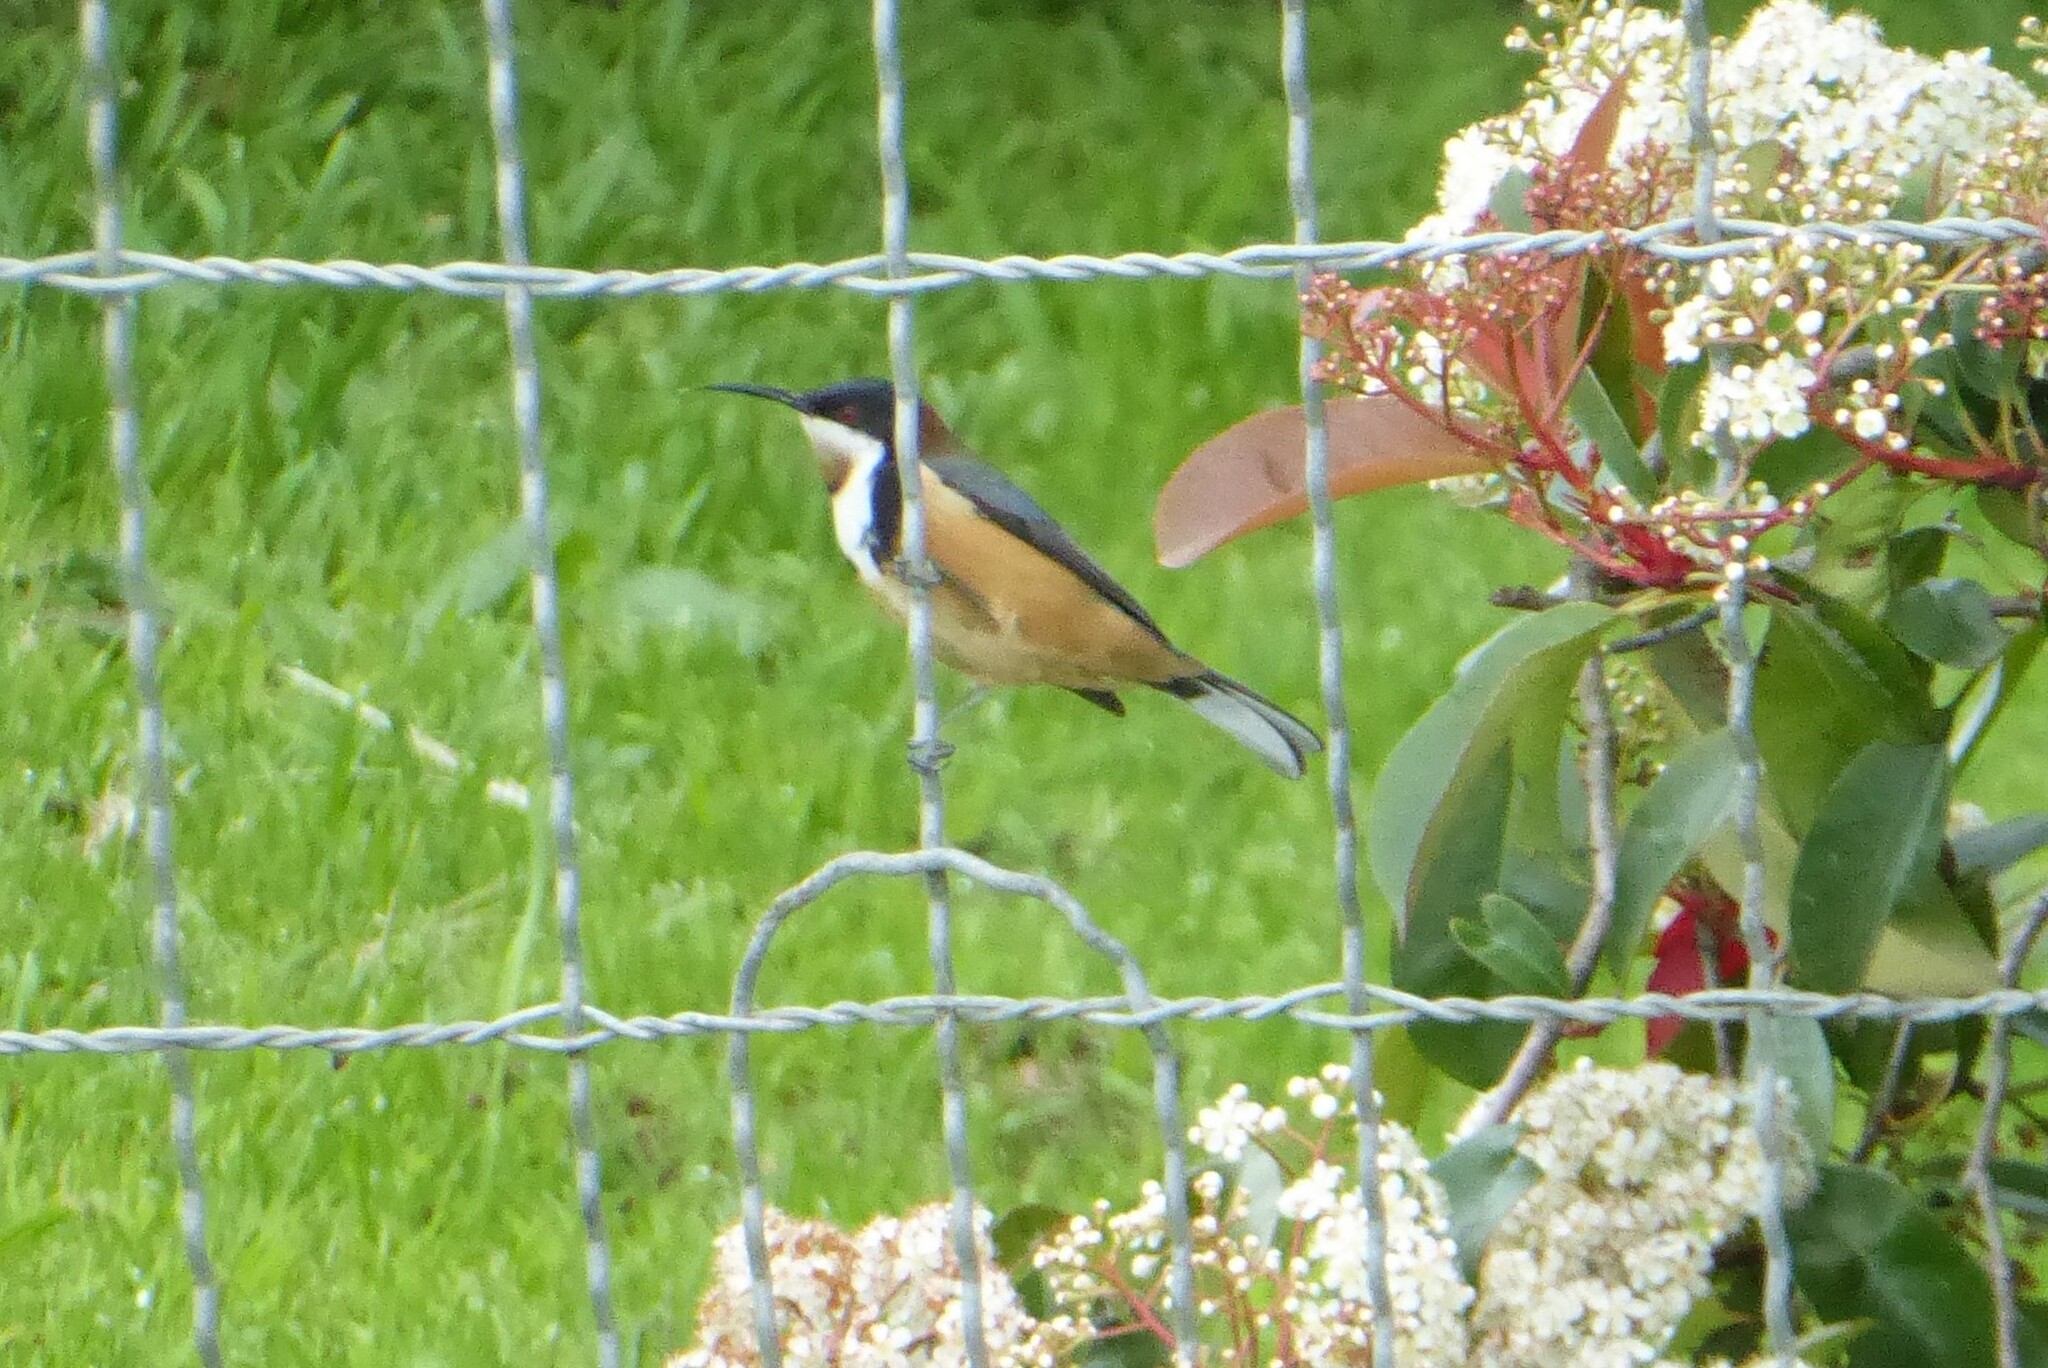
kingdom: Animalia
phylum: Chordata
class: Aves
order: Passeriformes
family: Meliphagidae
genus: Acanthorhynchus
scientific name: Acanthorhynchus tenuirostris
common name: Eastern spinebill
